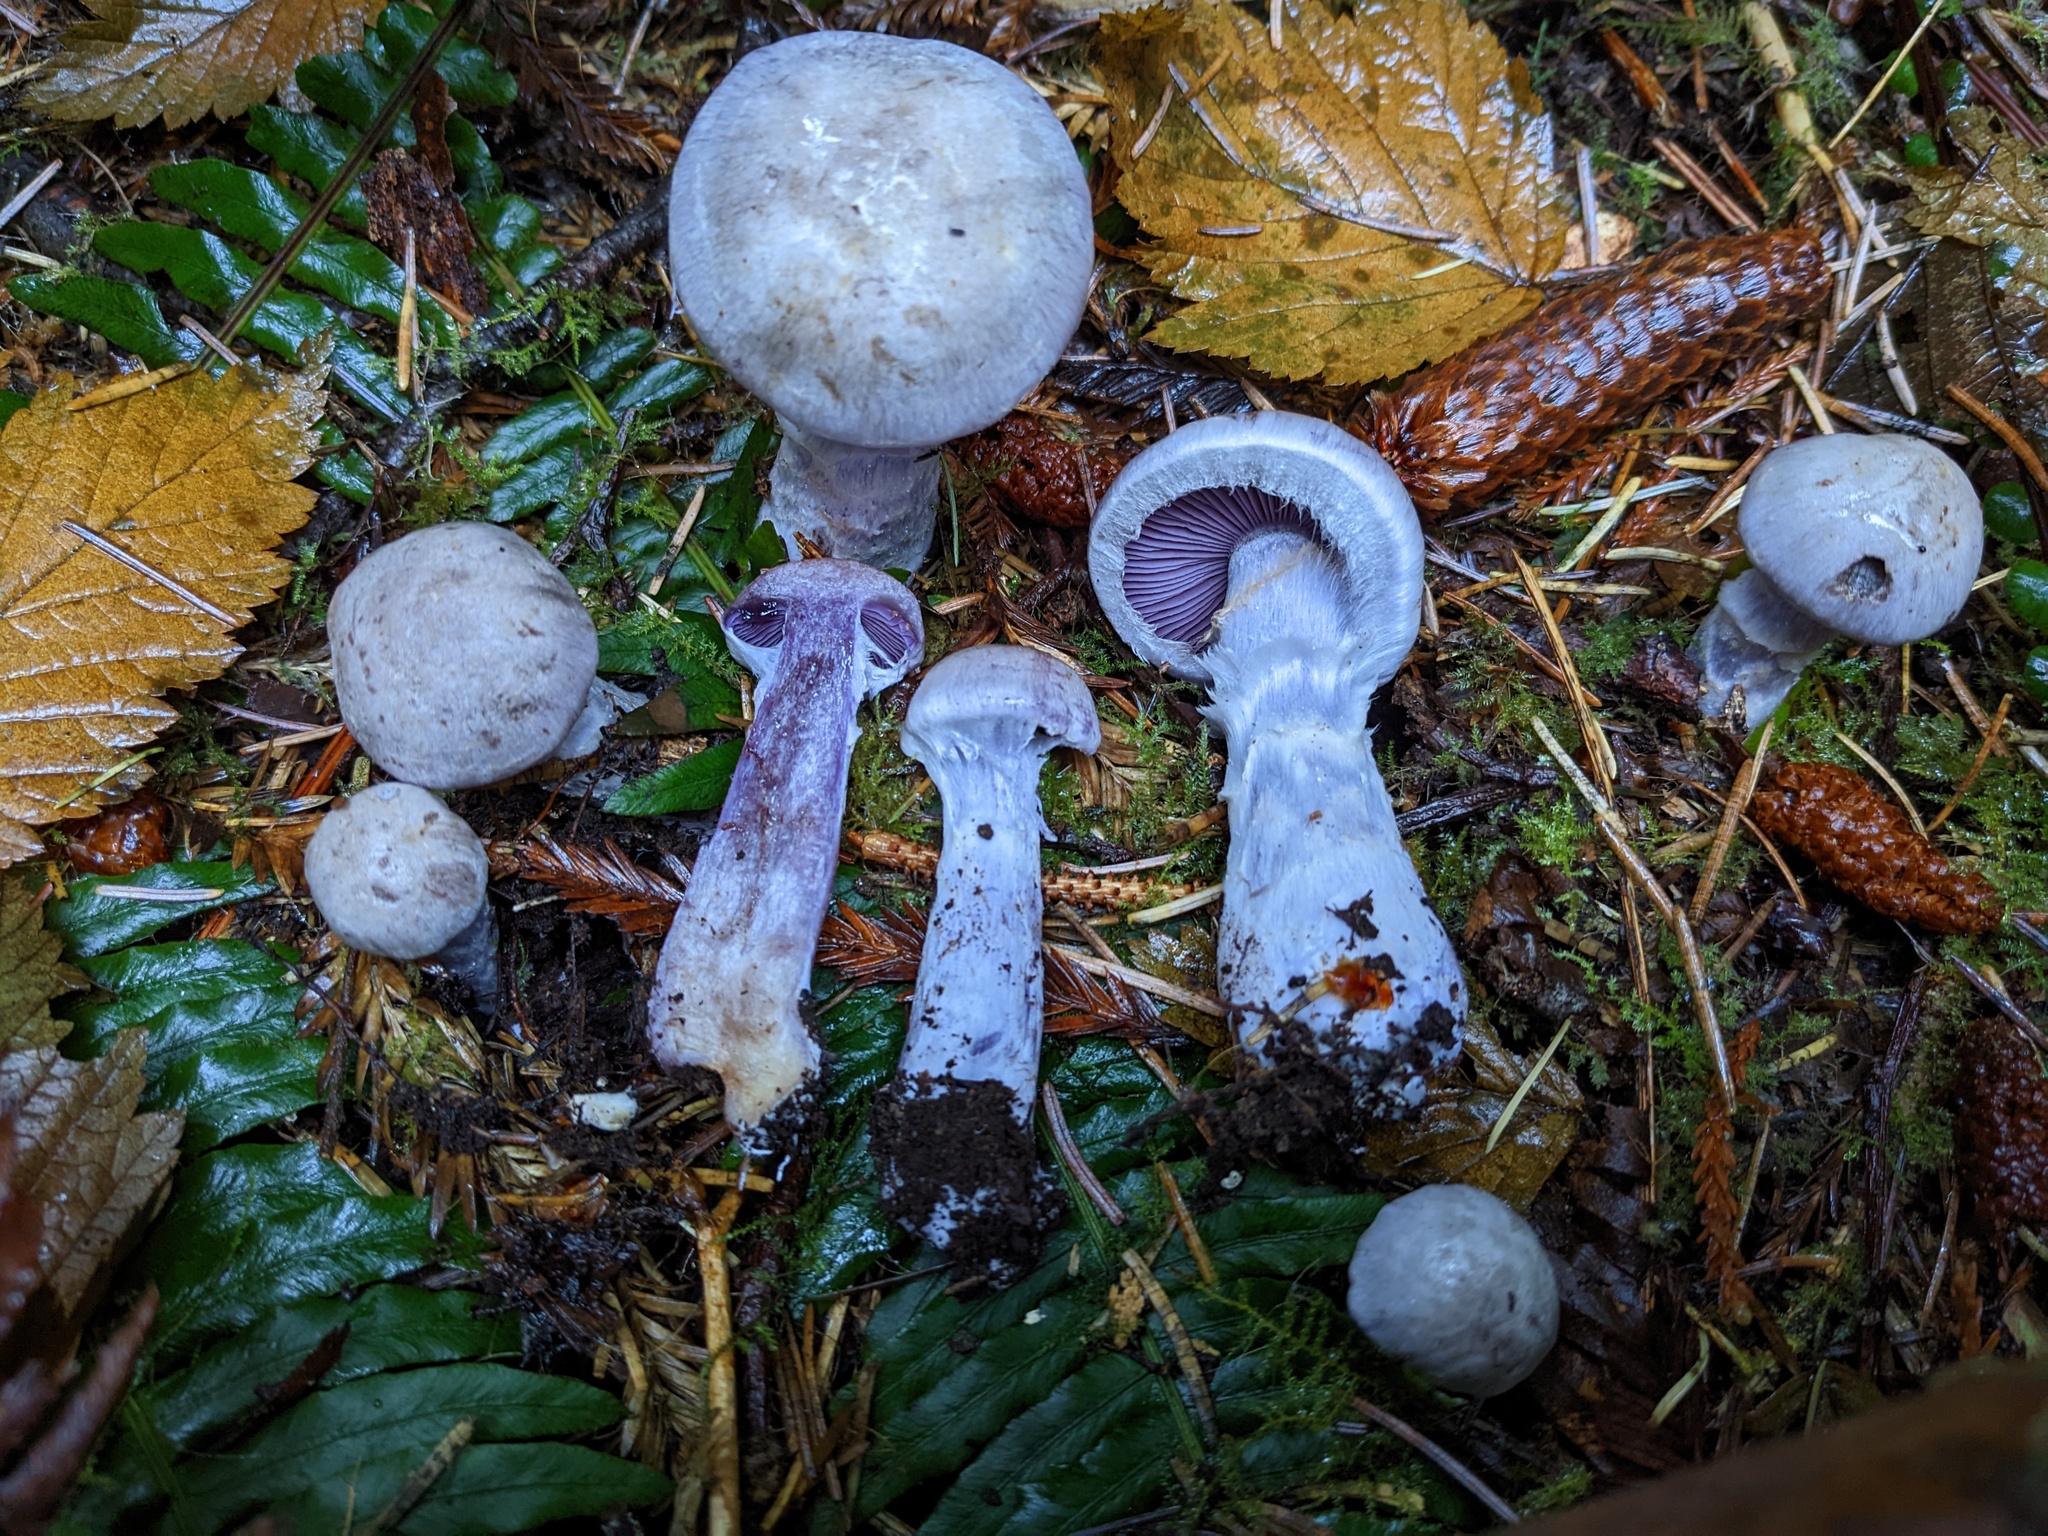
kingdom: Fungi
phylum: Basidiomycota
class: Agaricomycetes
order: Agaricales
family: Cortinariaceae
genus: Cortinarius
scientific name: Cortinarius putorius
